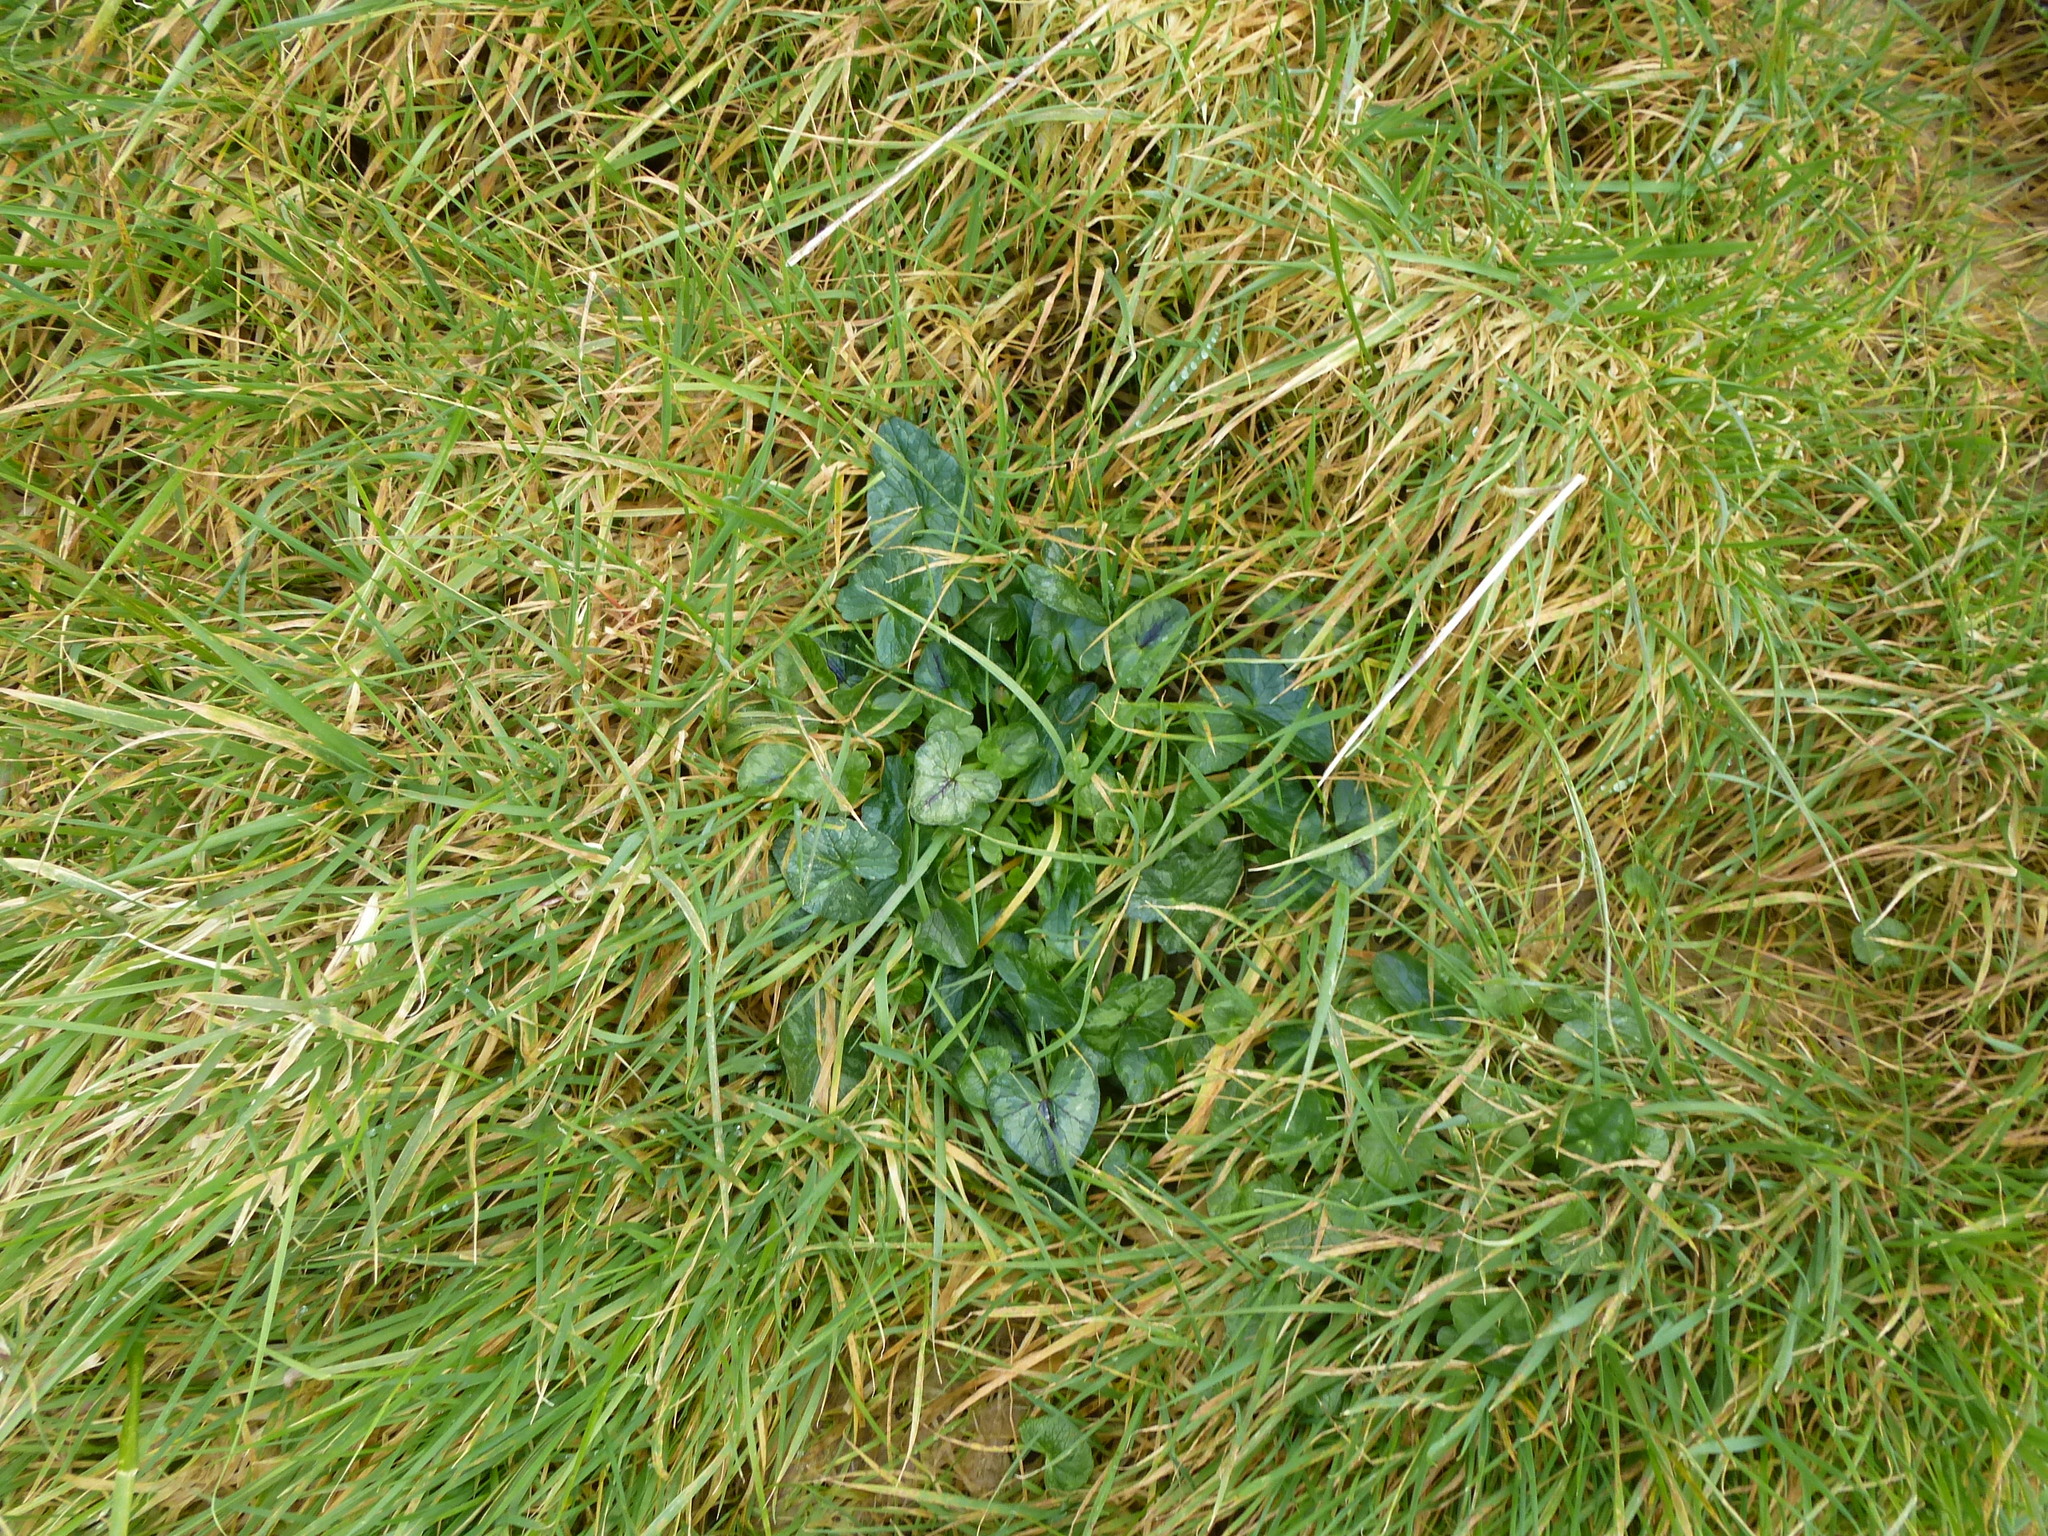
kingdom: Plantae
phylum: Tracheophyta
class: Magnoliopsida
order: Ranunculales
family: Ranunculaceae
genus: Ficaria
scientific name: Ficaria verna
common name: Lesser celandine
